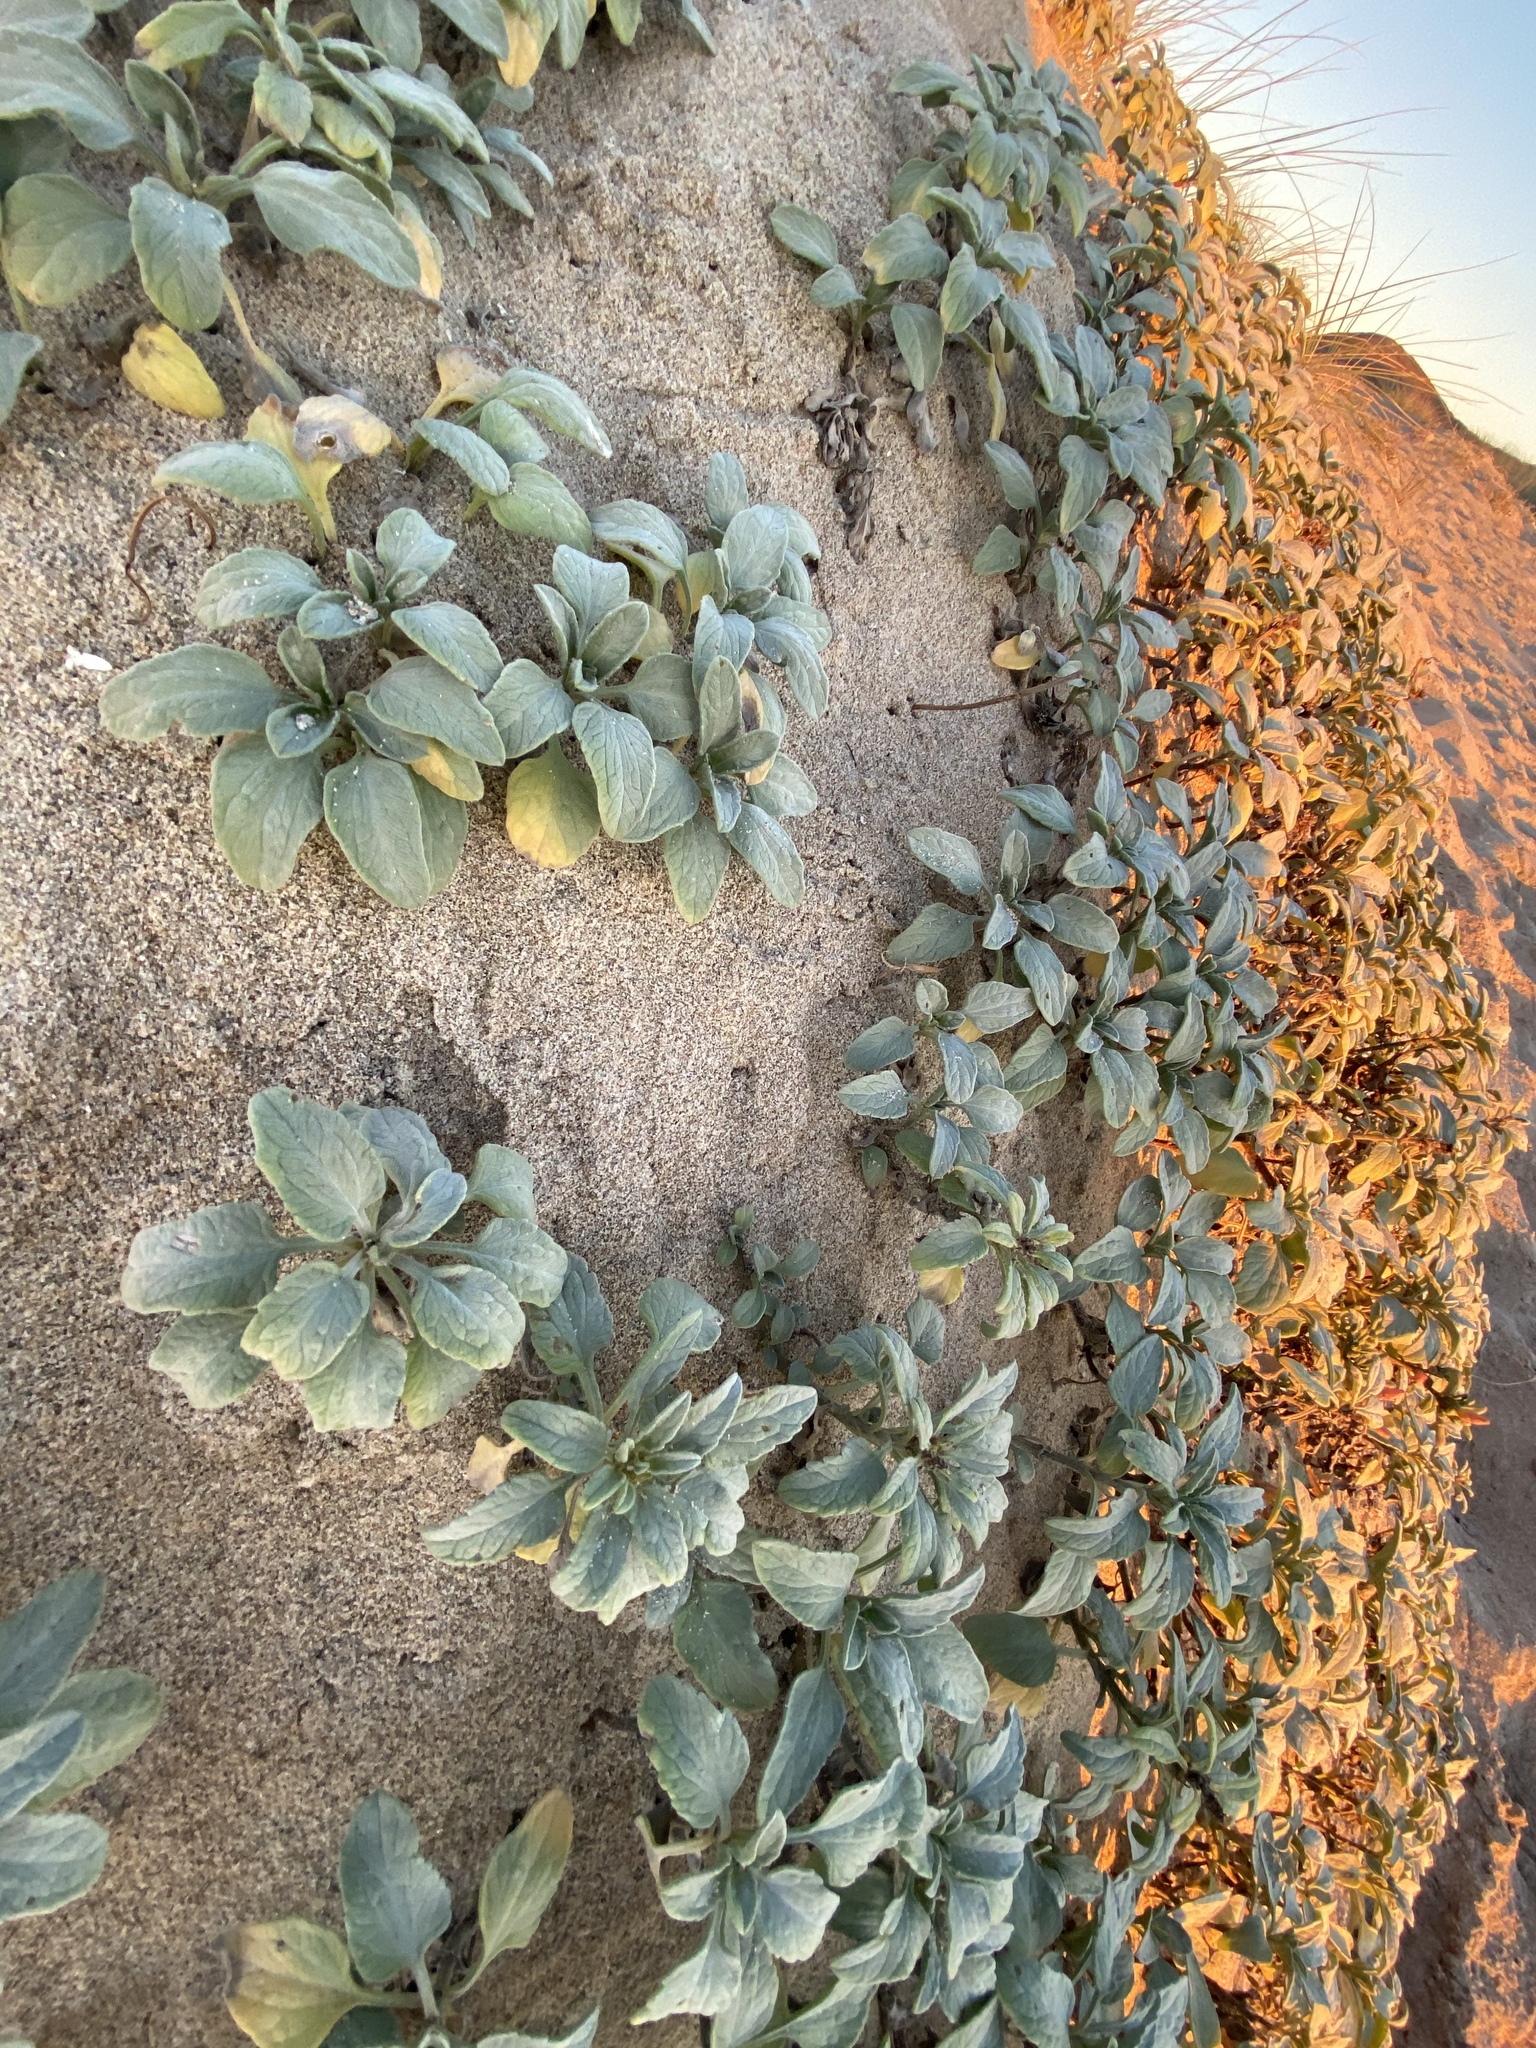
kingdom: Plantae
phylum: Tracheophyta
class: Magnoliopsida
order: Myrtales
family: Onagraceae
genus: Camissoniopsis
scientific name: Camissoniopsis cheiranthifolia
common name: Beach suncup
